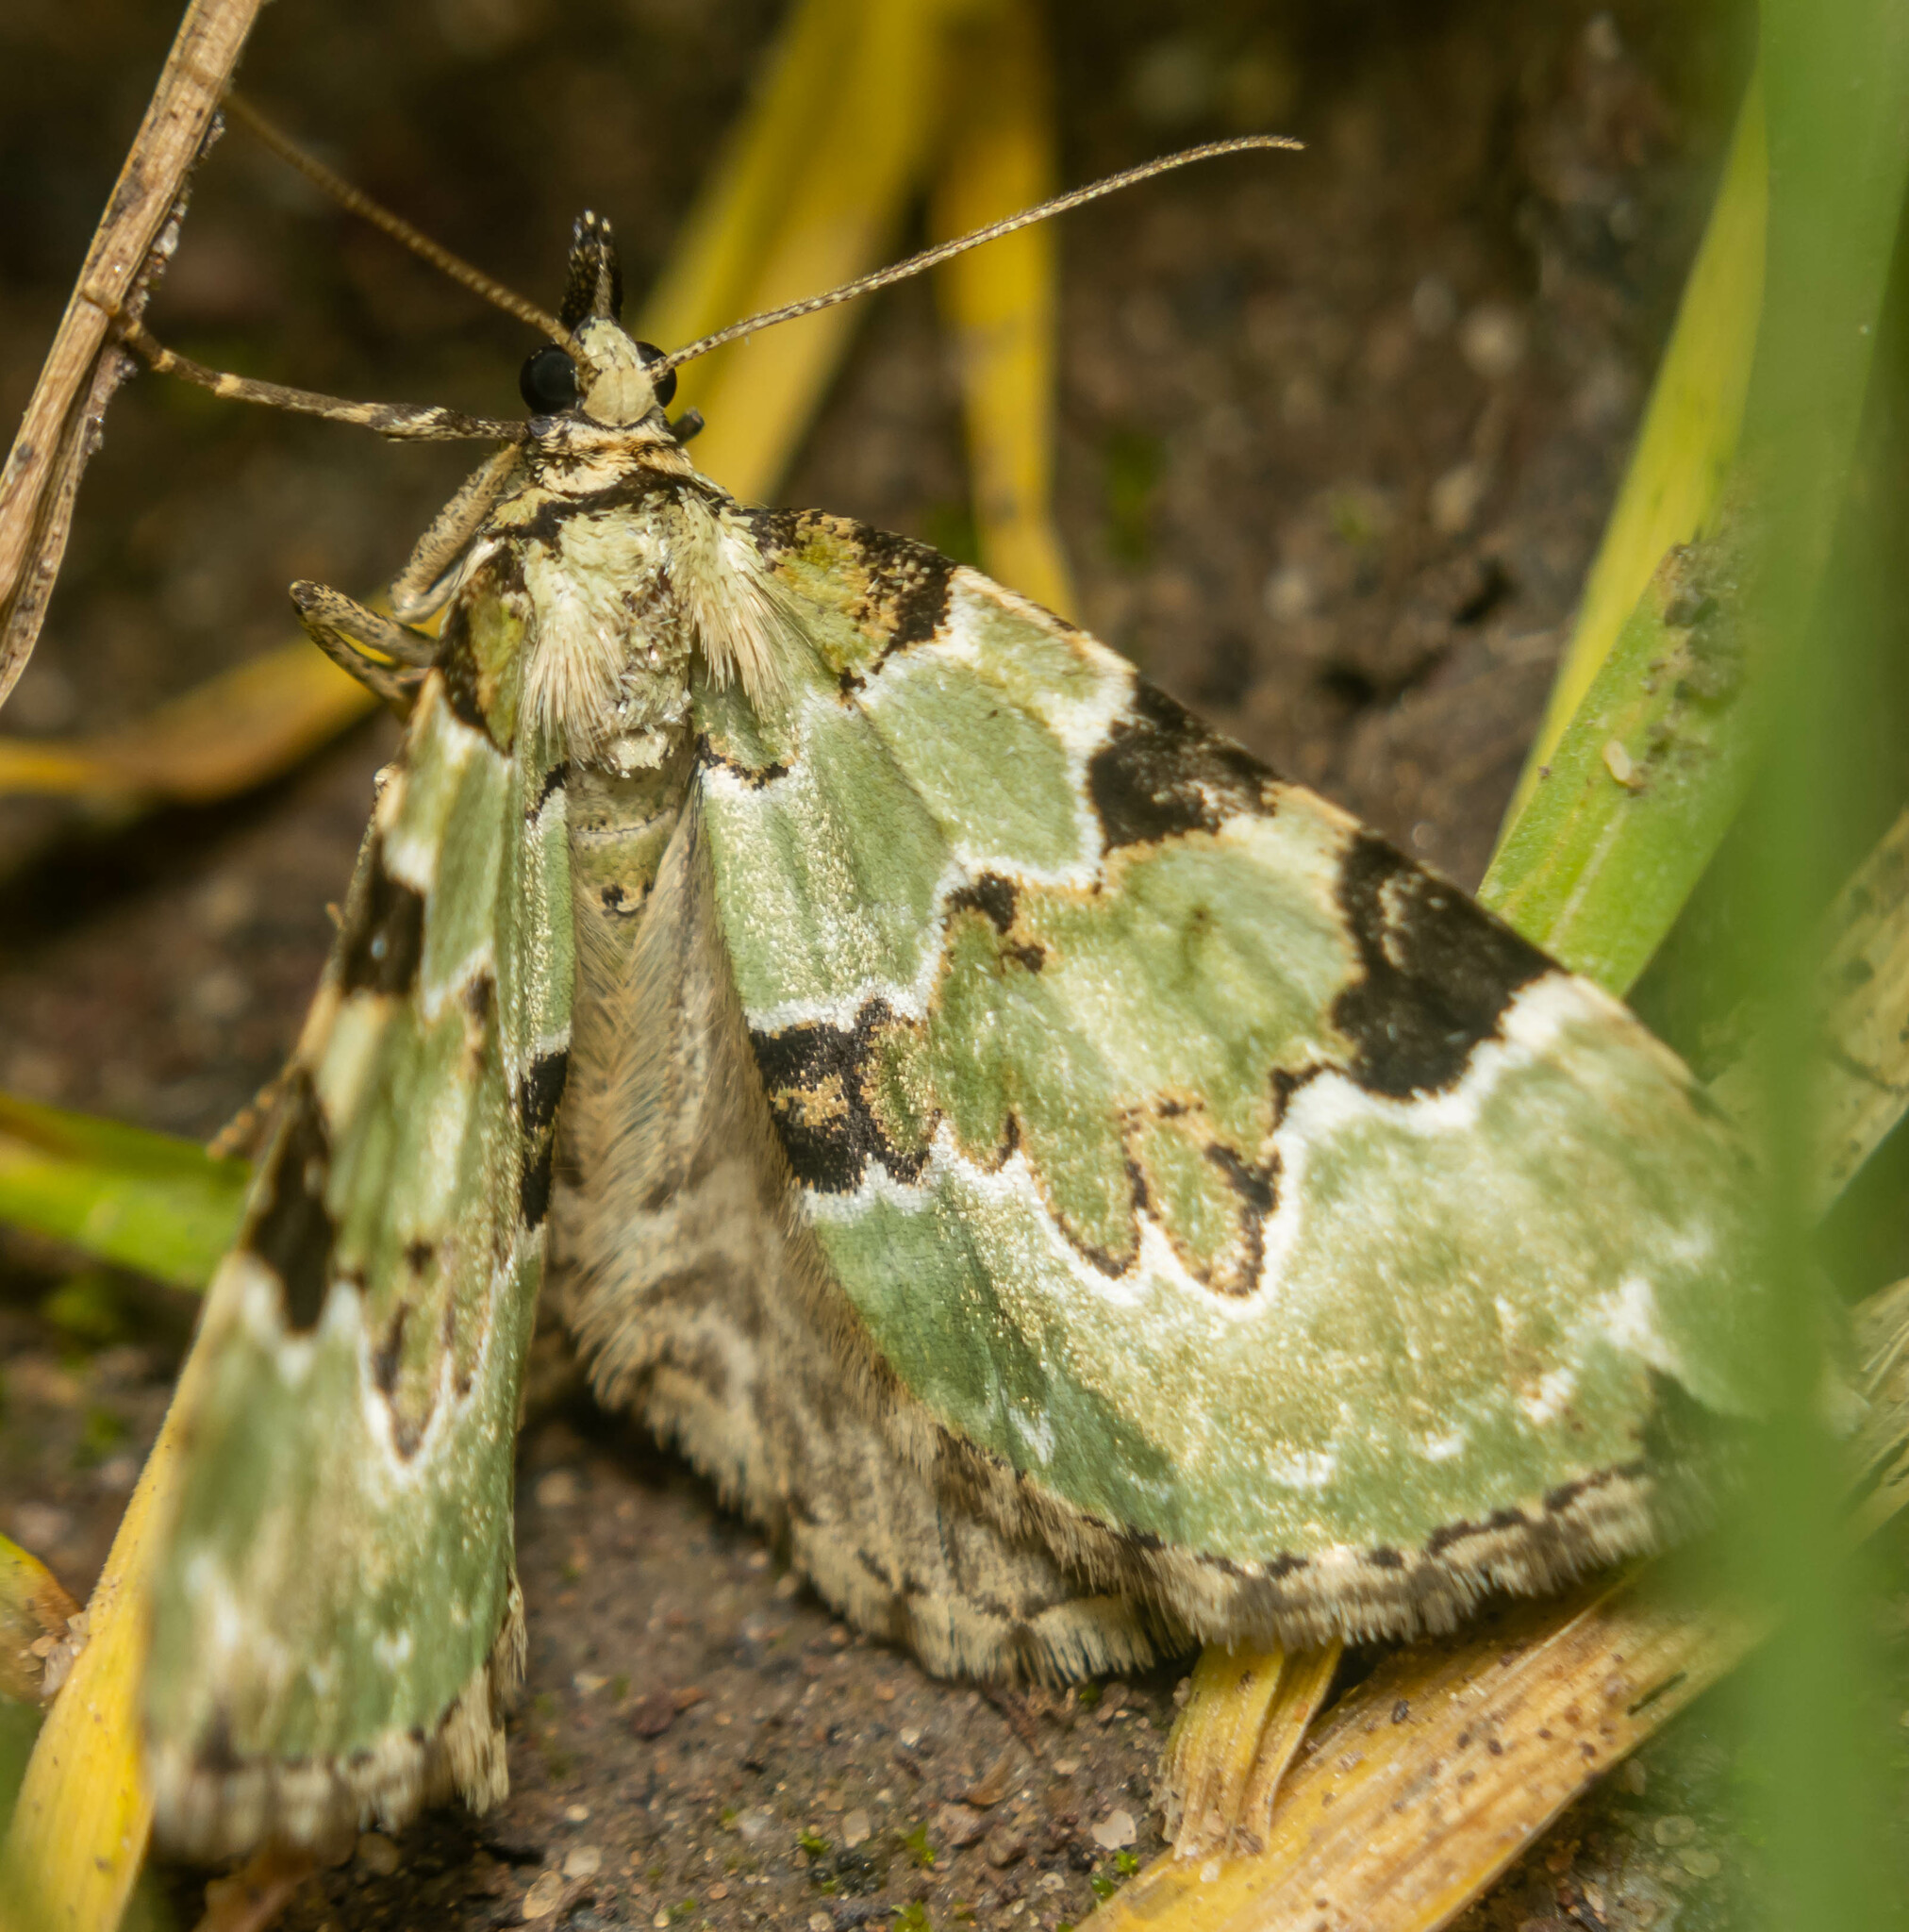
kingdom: Animalia
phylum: Arthropoda
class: Insecta
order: Lepidoptera
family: Geometridae
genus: Colostygia
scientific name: Colostygia pectinataria
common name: Green carpet
